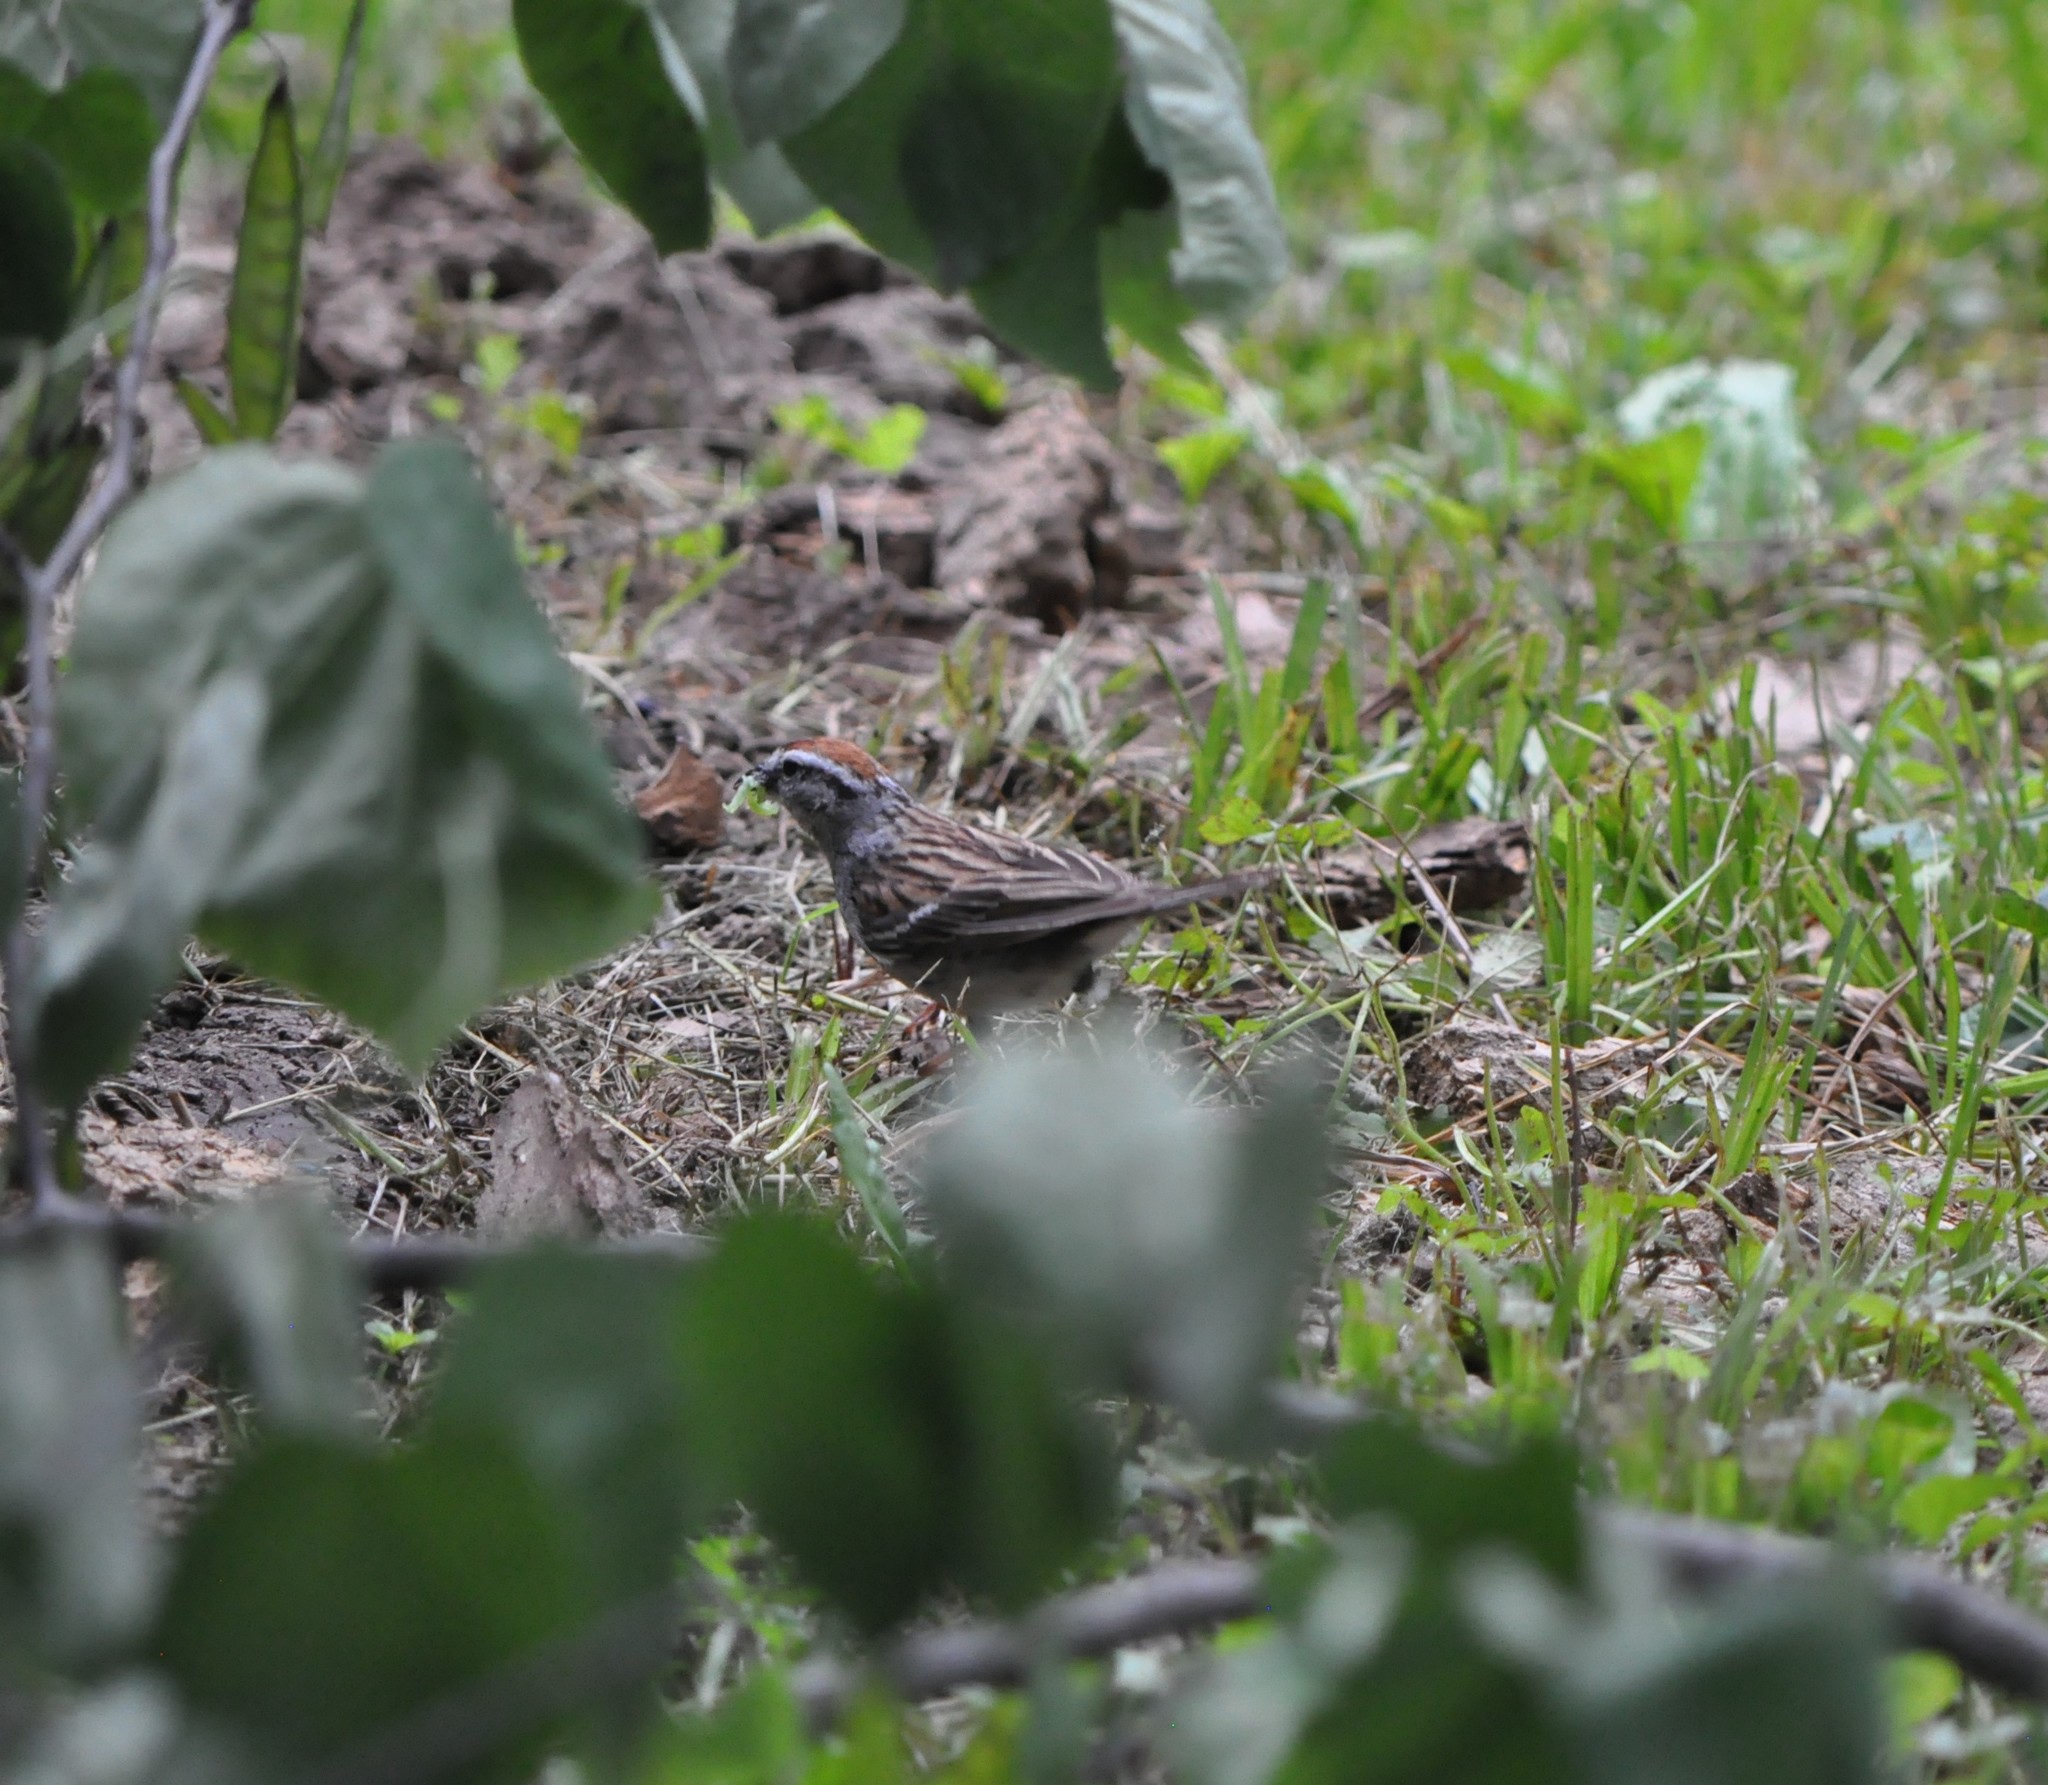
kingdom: Animalia
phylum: Chordata
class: Aves
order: Passeriformes
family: Passerellidae
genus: Spizella
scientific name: Spizella passerina
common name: Chipping sparrow
